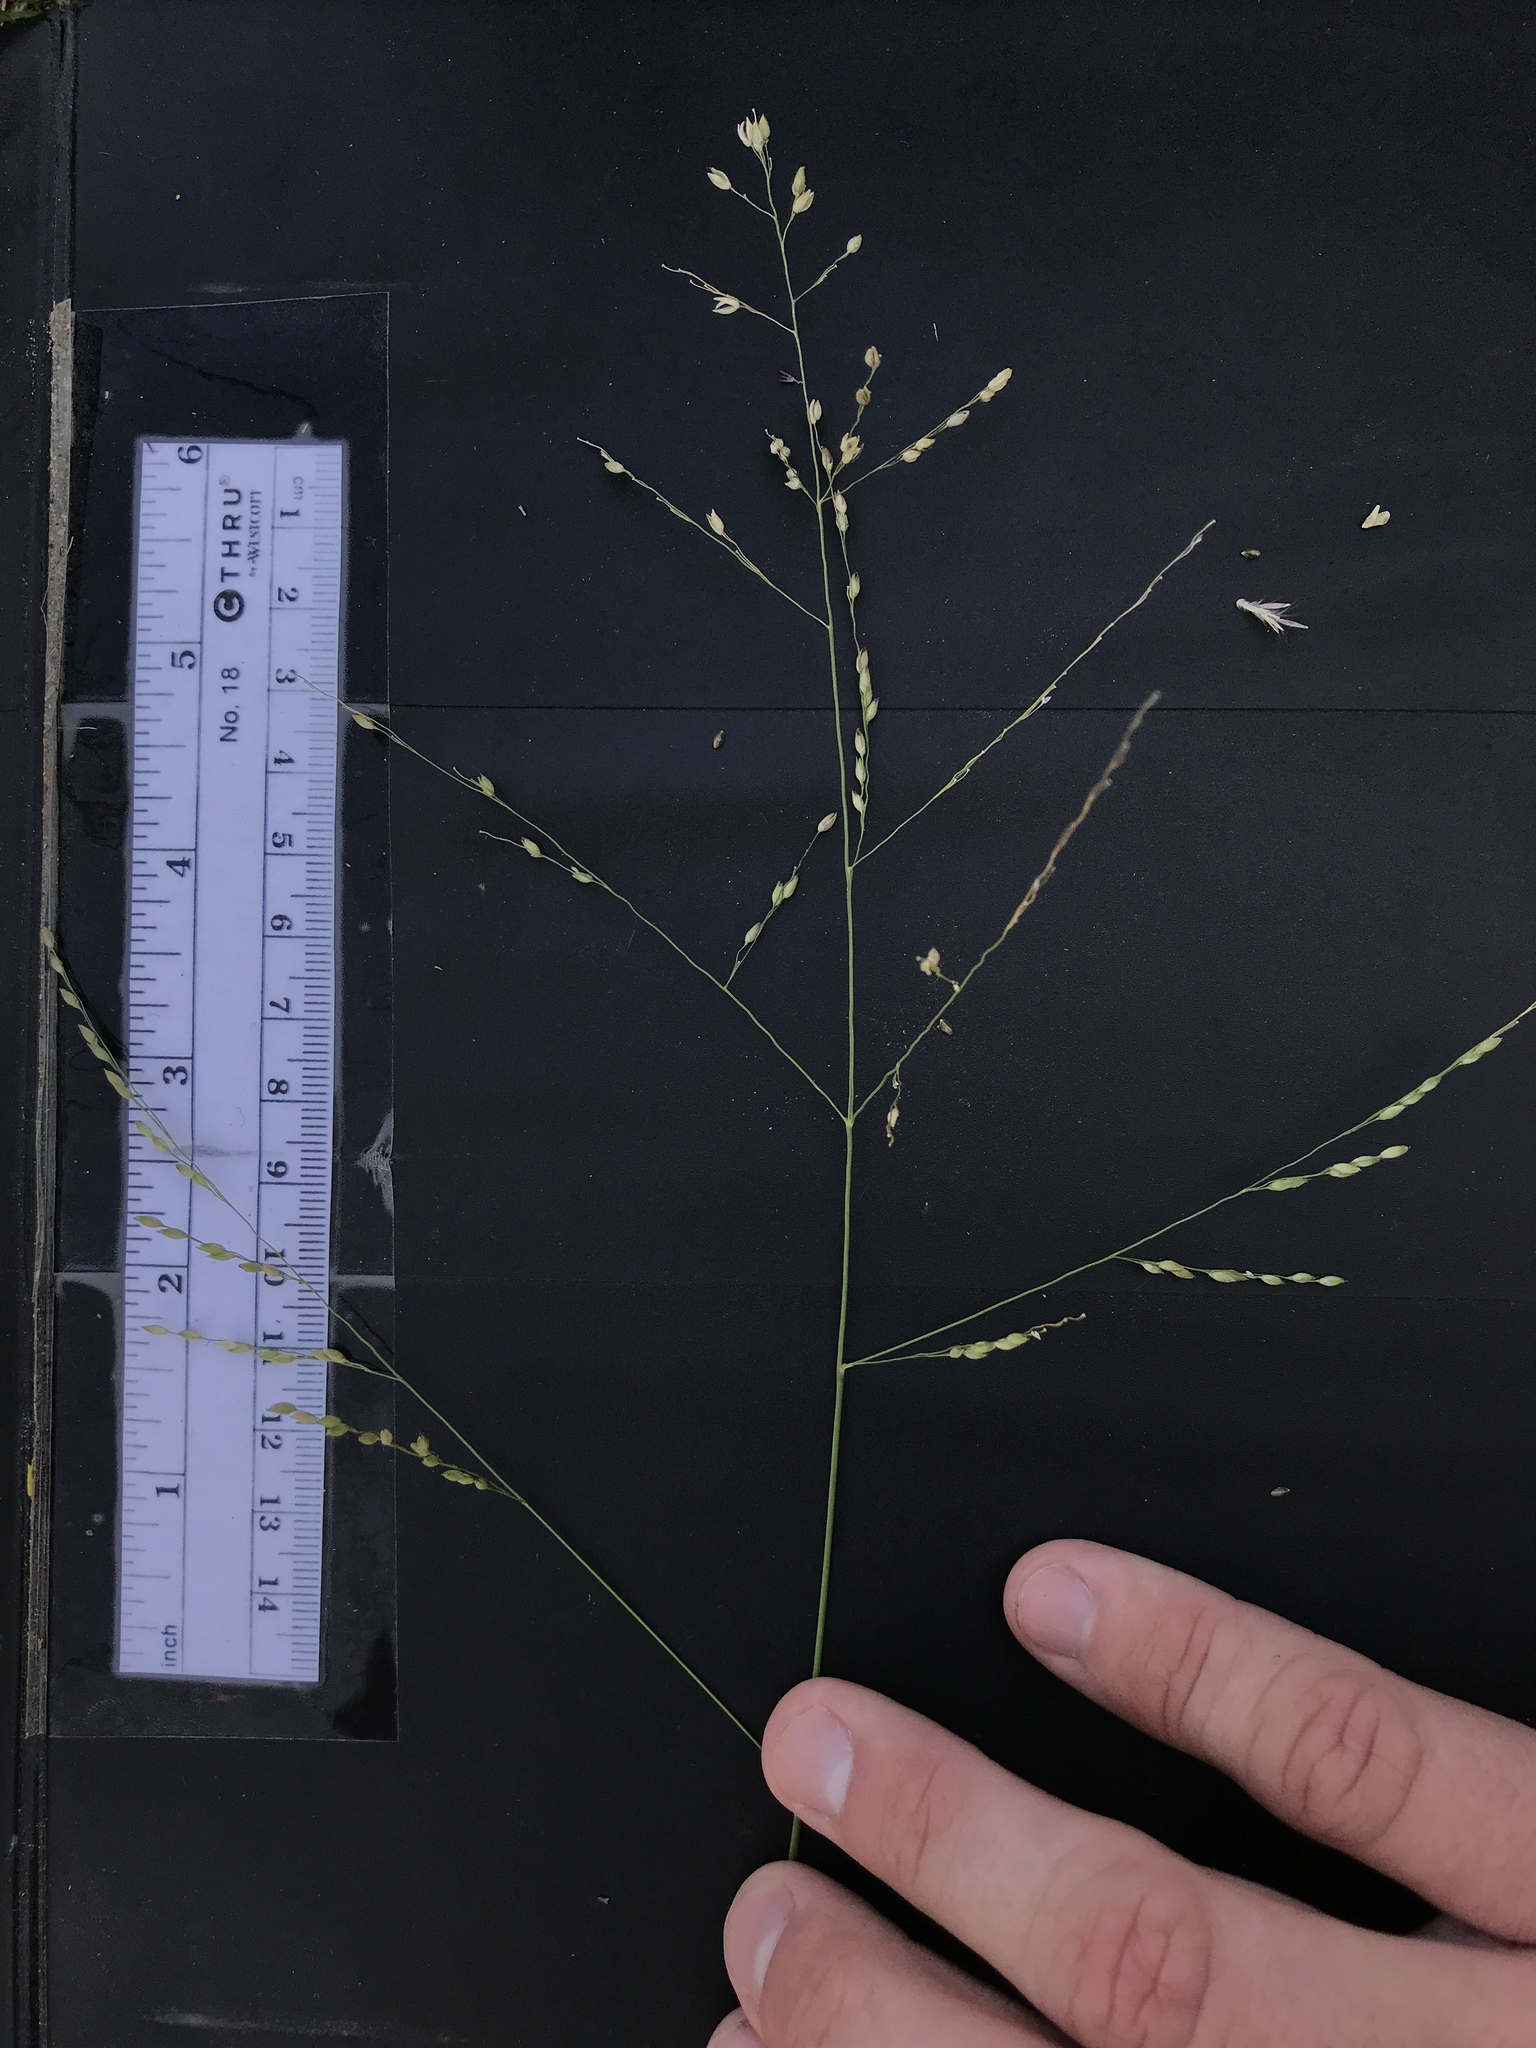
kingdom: Plantae
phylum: Tracheophyta
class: Liliopsida
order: Poales
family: Poaceae
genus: Panicum
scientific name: Panicum coloratum
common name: Kleingrass
